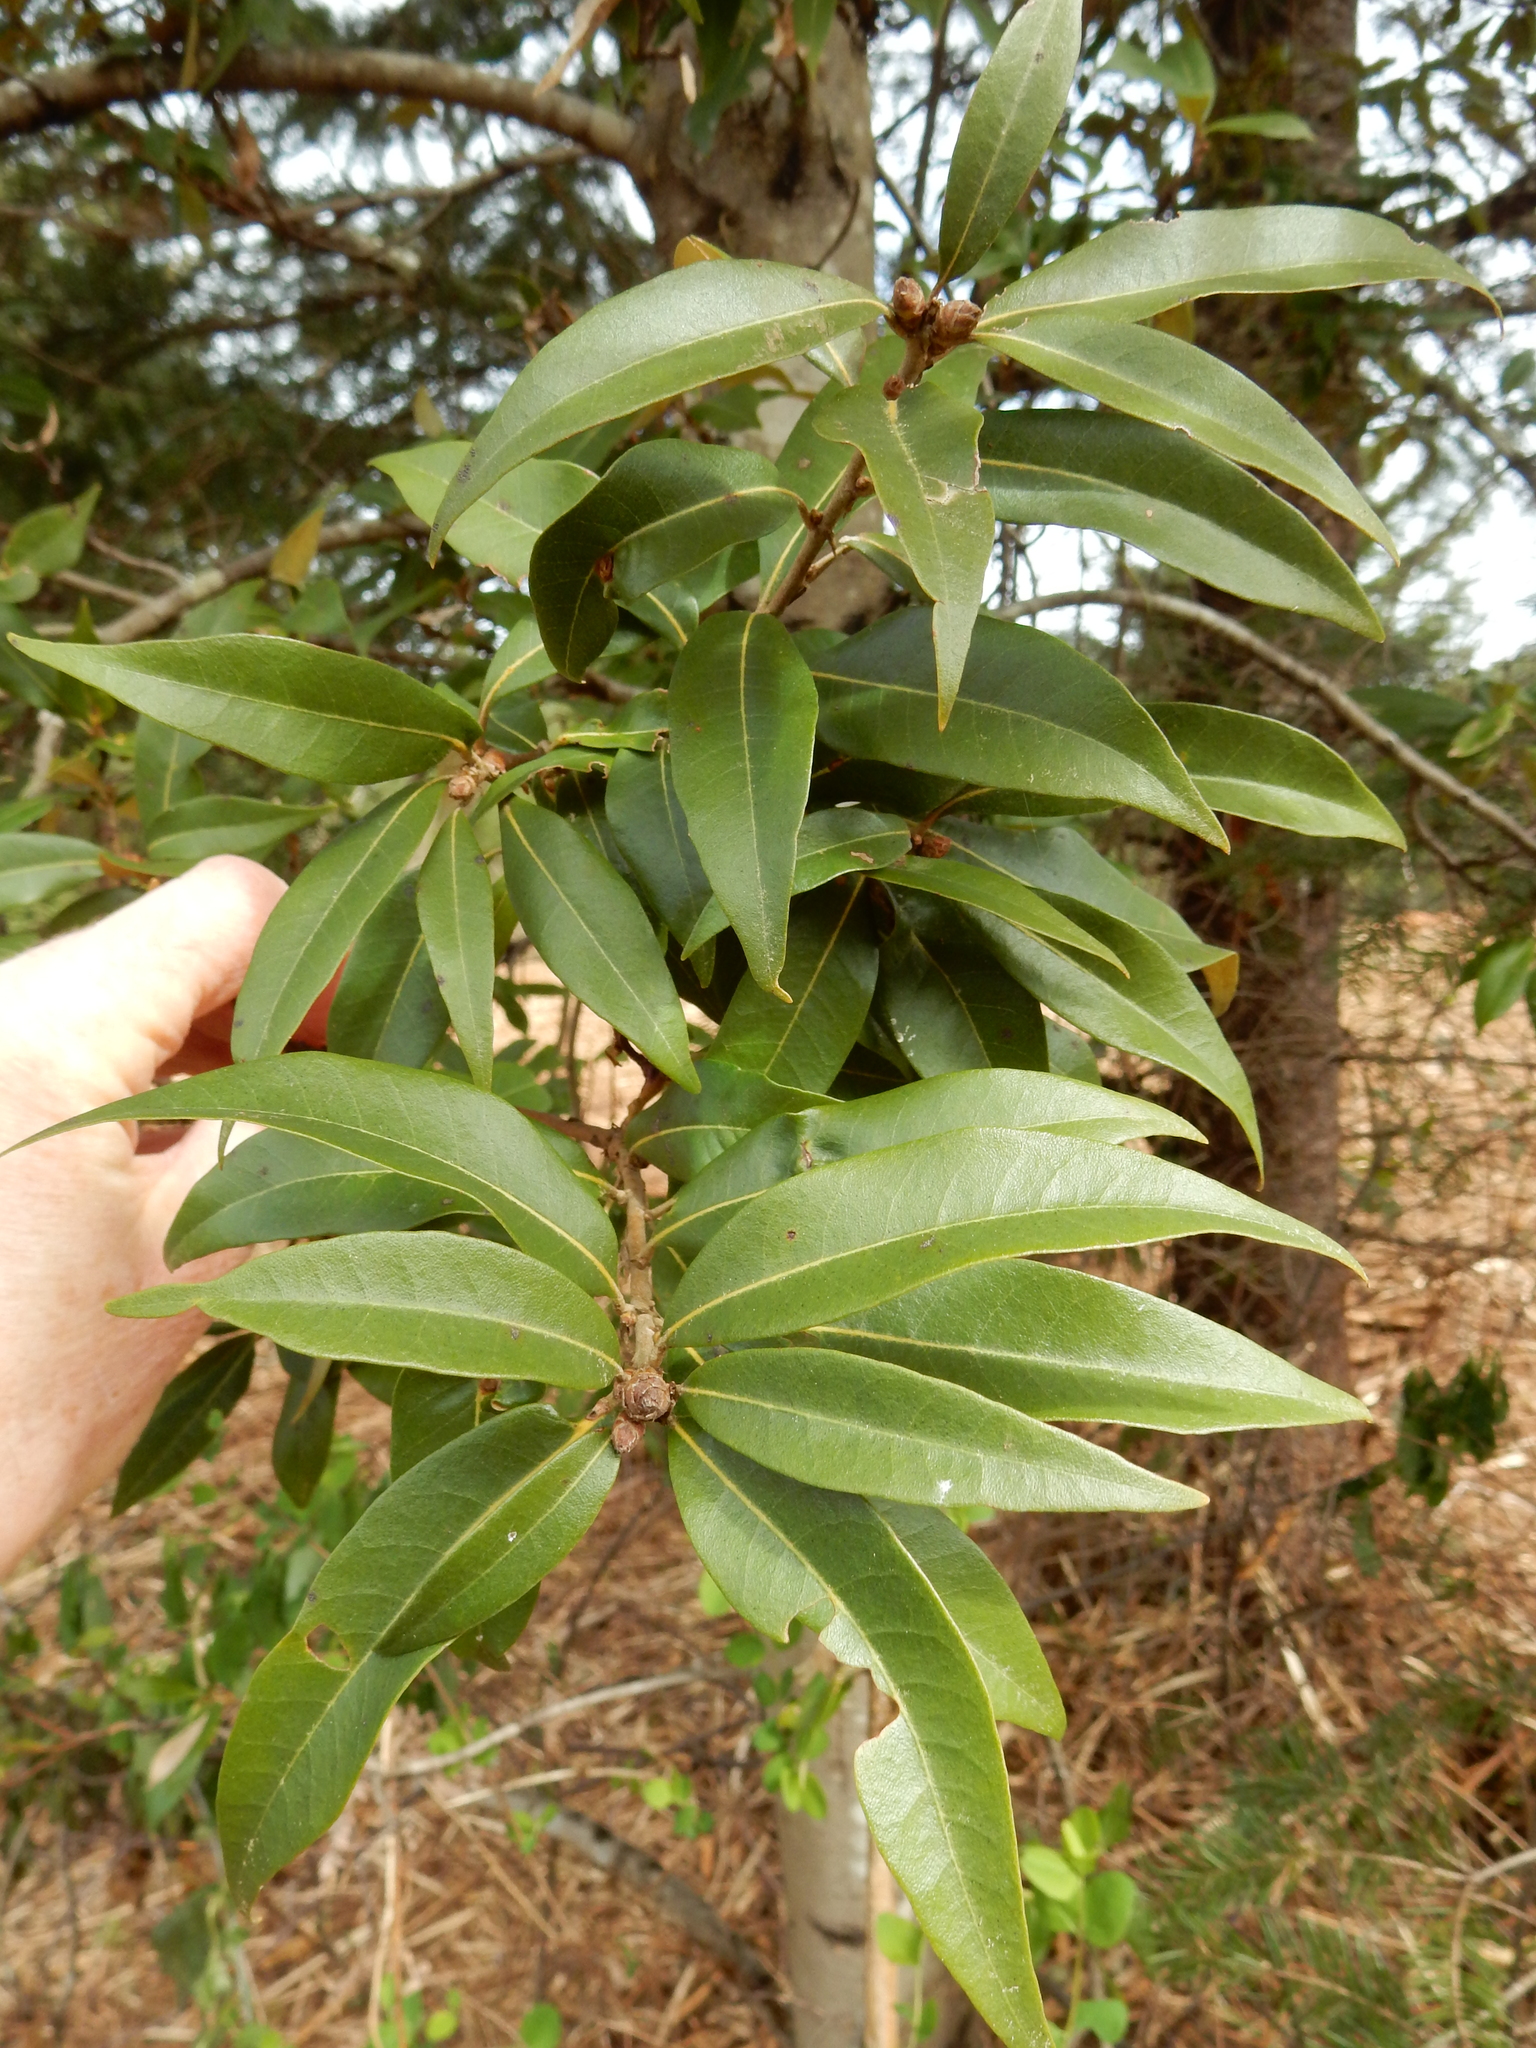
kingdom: Plantae
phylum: Tracheophyta
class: Magnoliopsida
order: Fagales
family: Fagaceae
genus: Chrysolepis
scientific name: Chrysolepis chrysophylla
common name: Giant chinquapin
